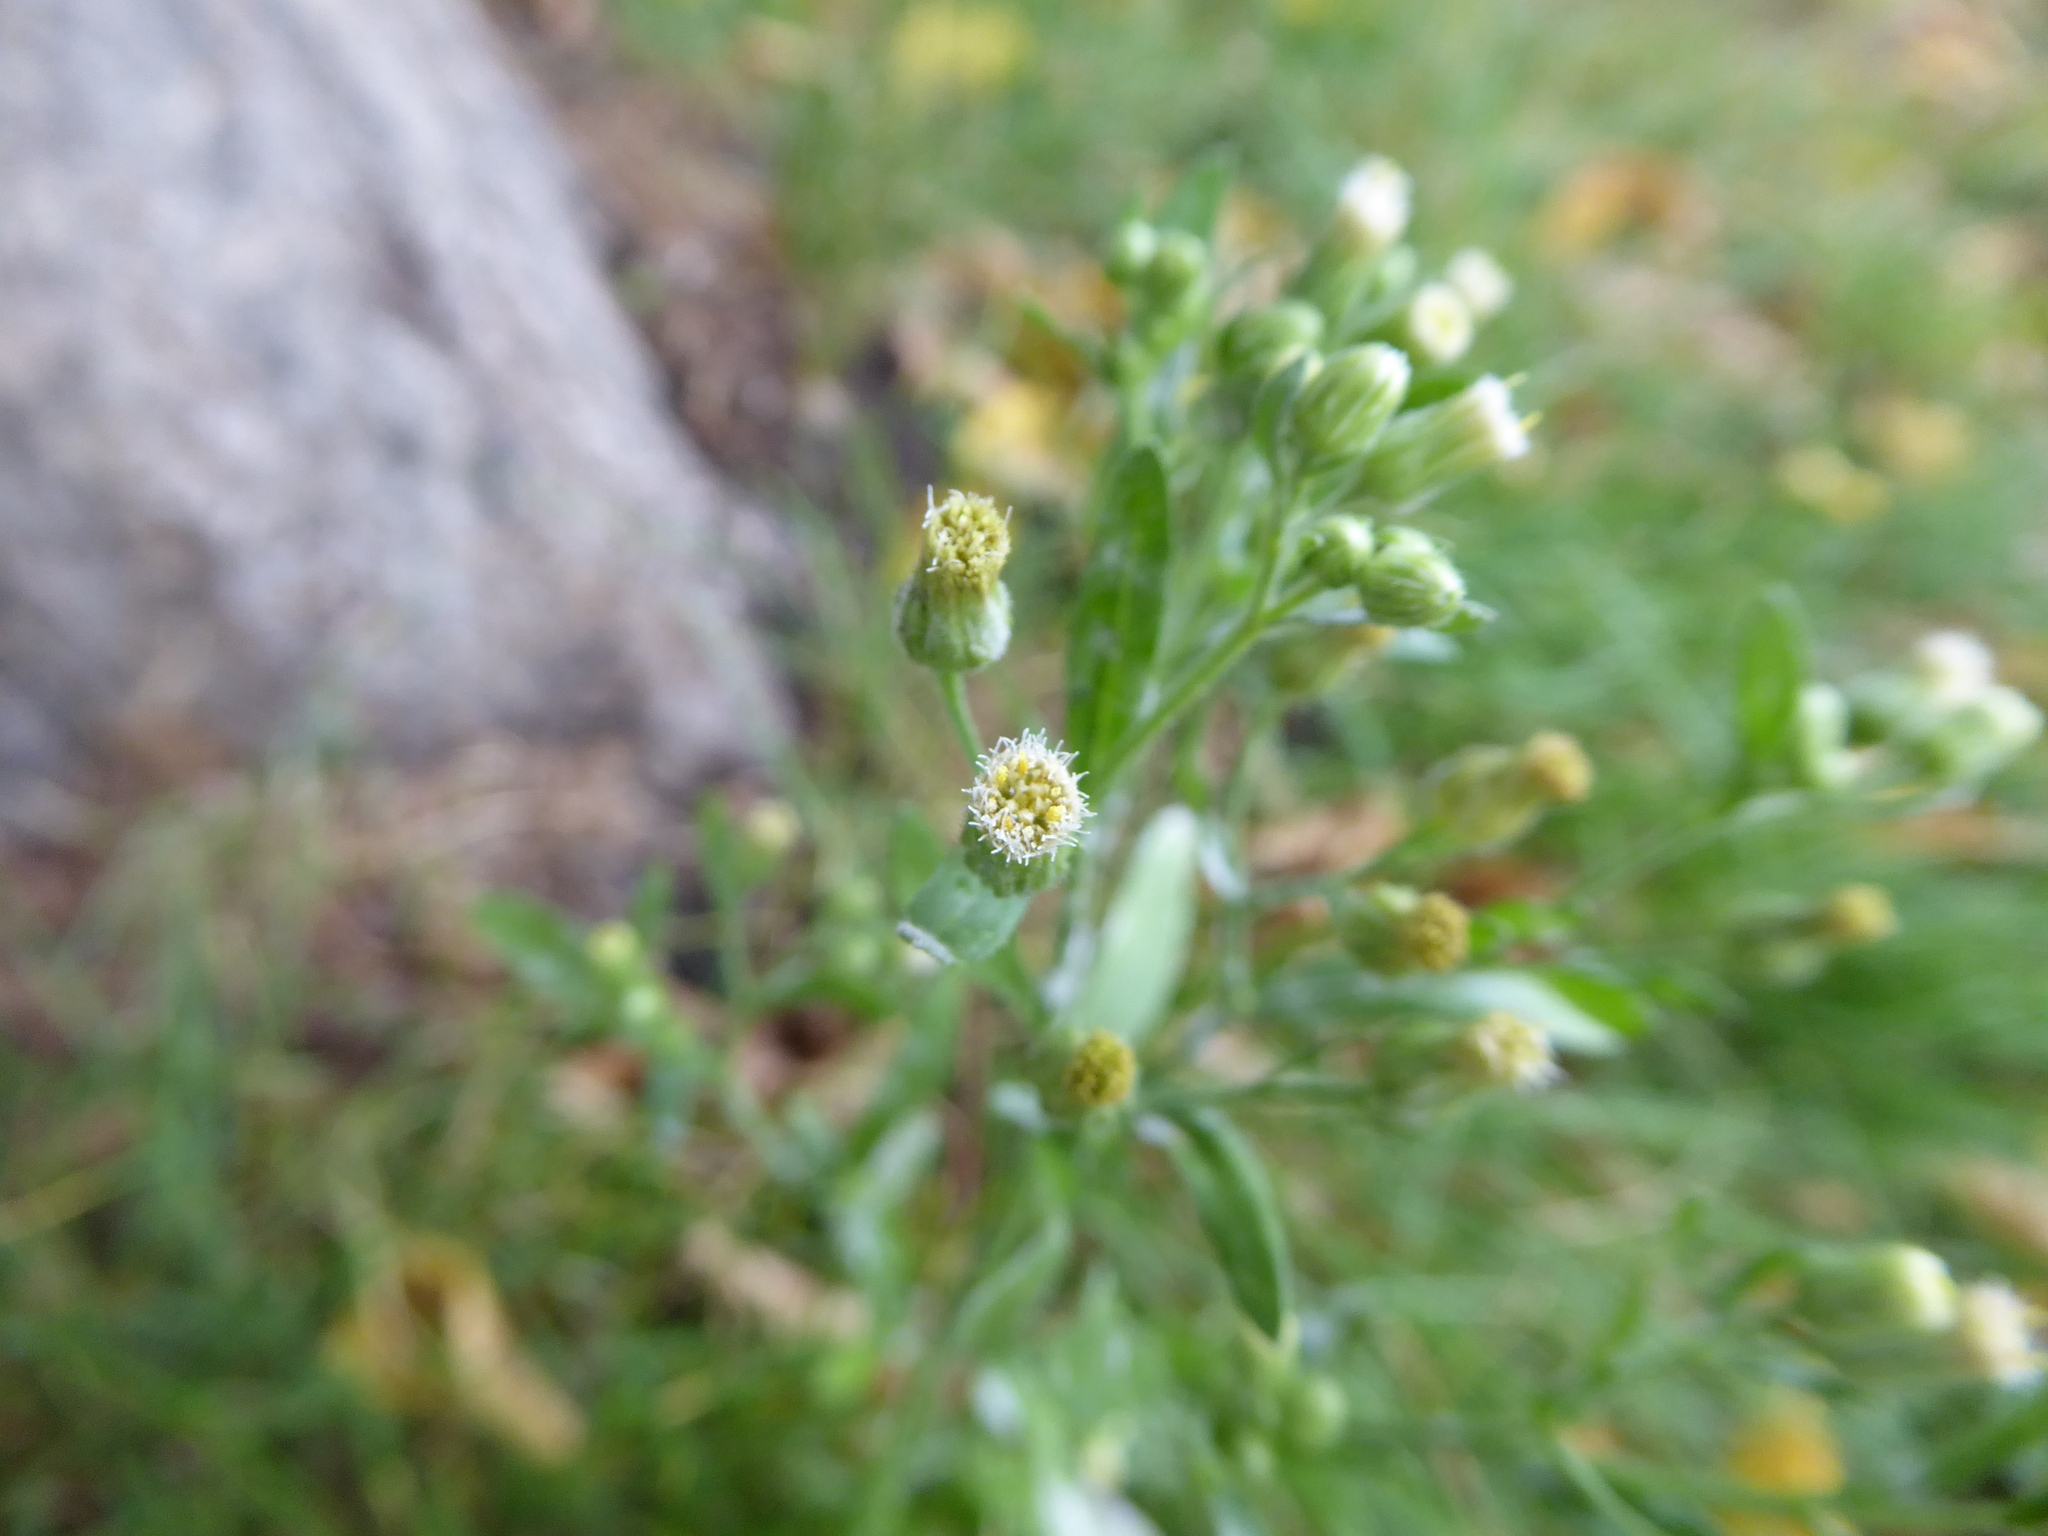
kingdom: Plantae
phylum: Tracheophyta
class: Magnoliopsida
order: Asterales
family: Asteraceae
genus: Erigeron
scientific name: Erigeron sumatrensis
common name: Daisy
